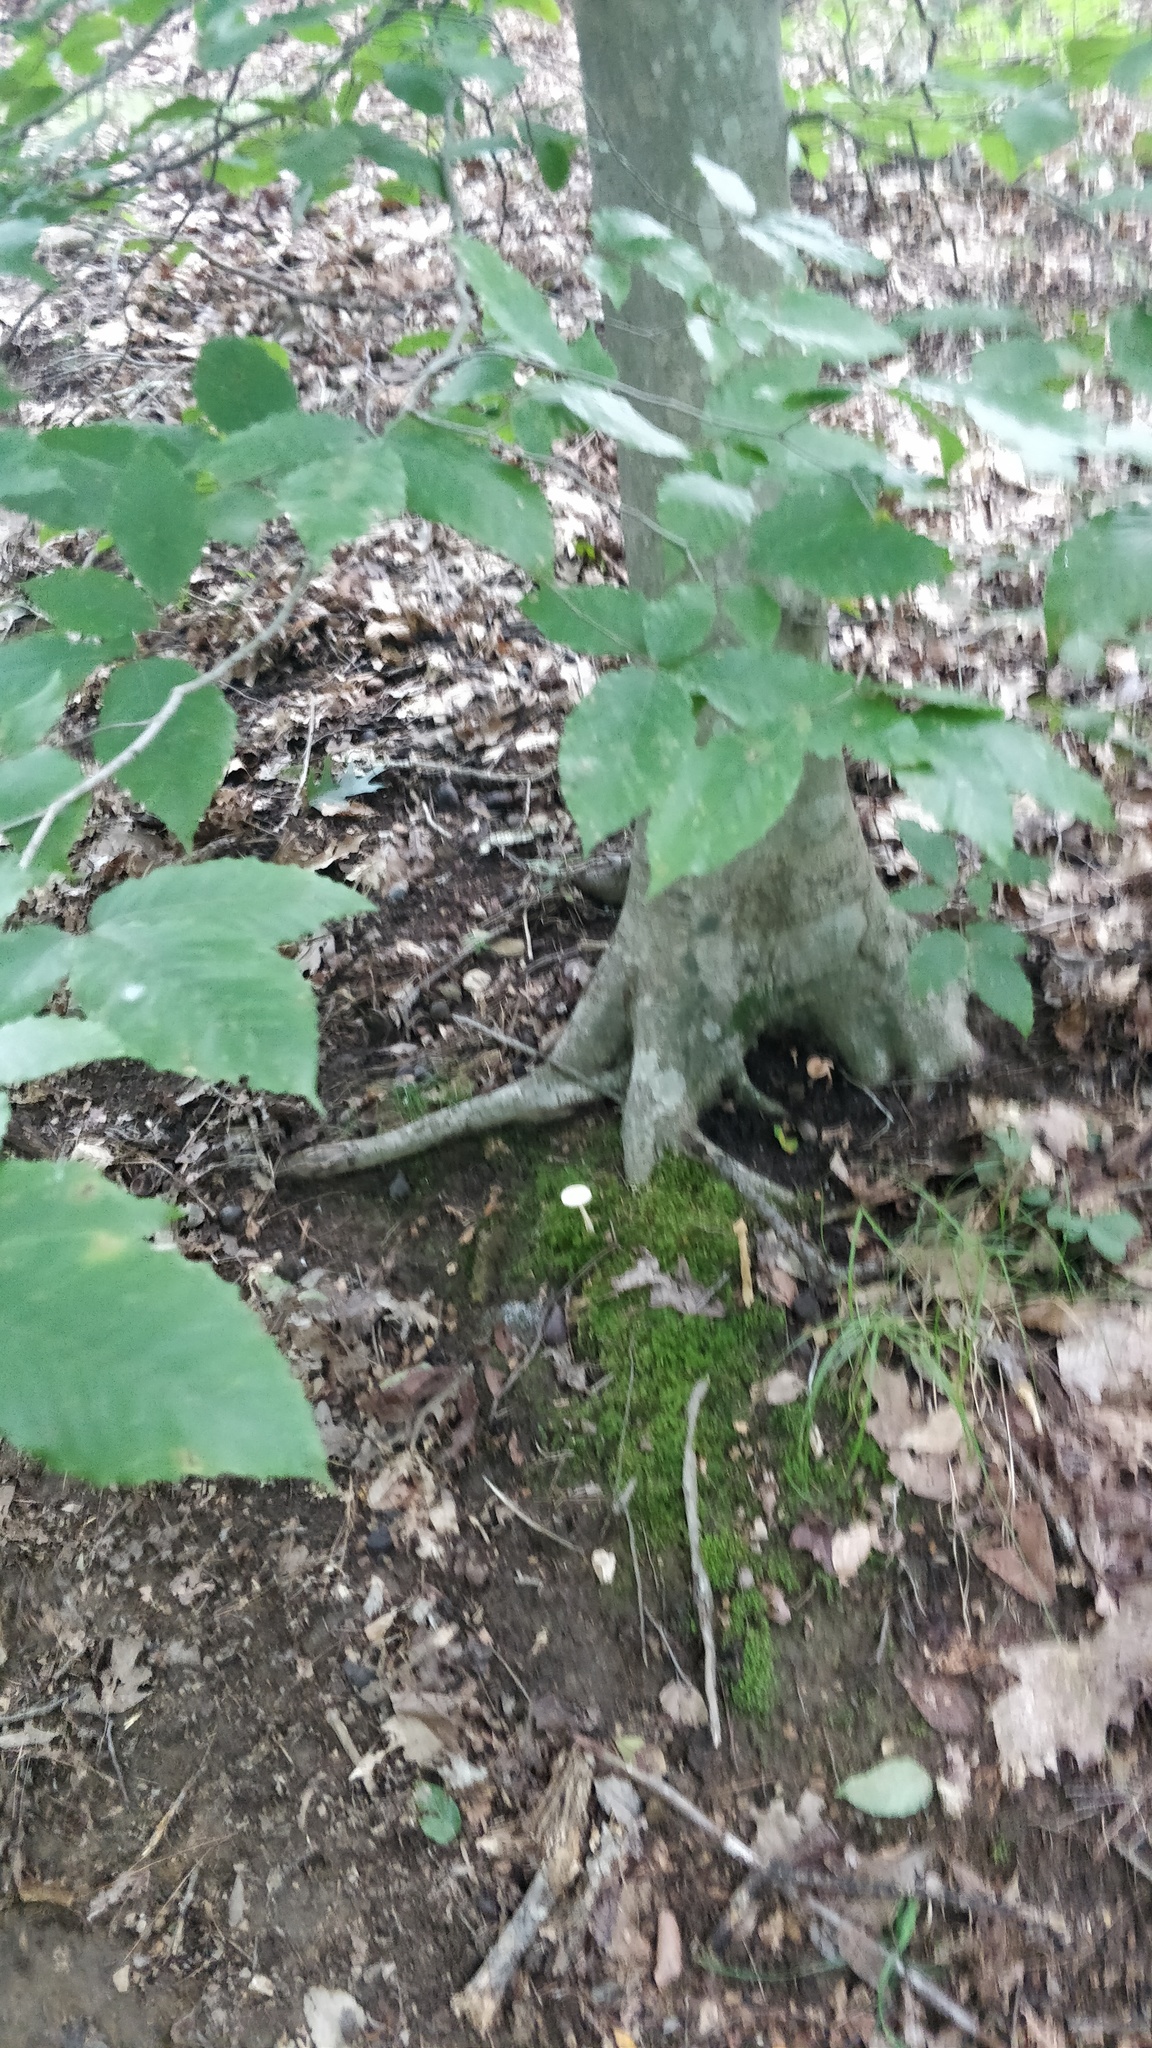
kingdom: Plantae
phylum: Tracheophyta
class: Magnoliopsida
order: Fagales
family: Fagaceae
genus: Fagus
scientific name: Fagus grandifolia
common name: American beech
